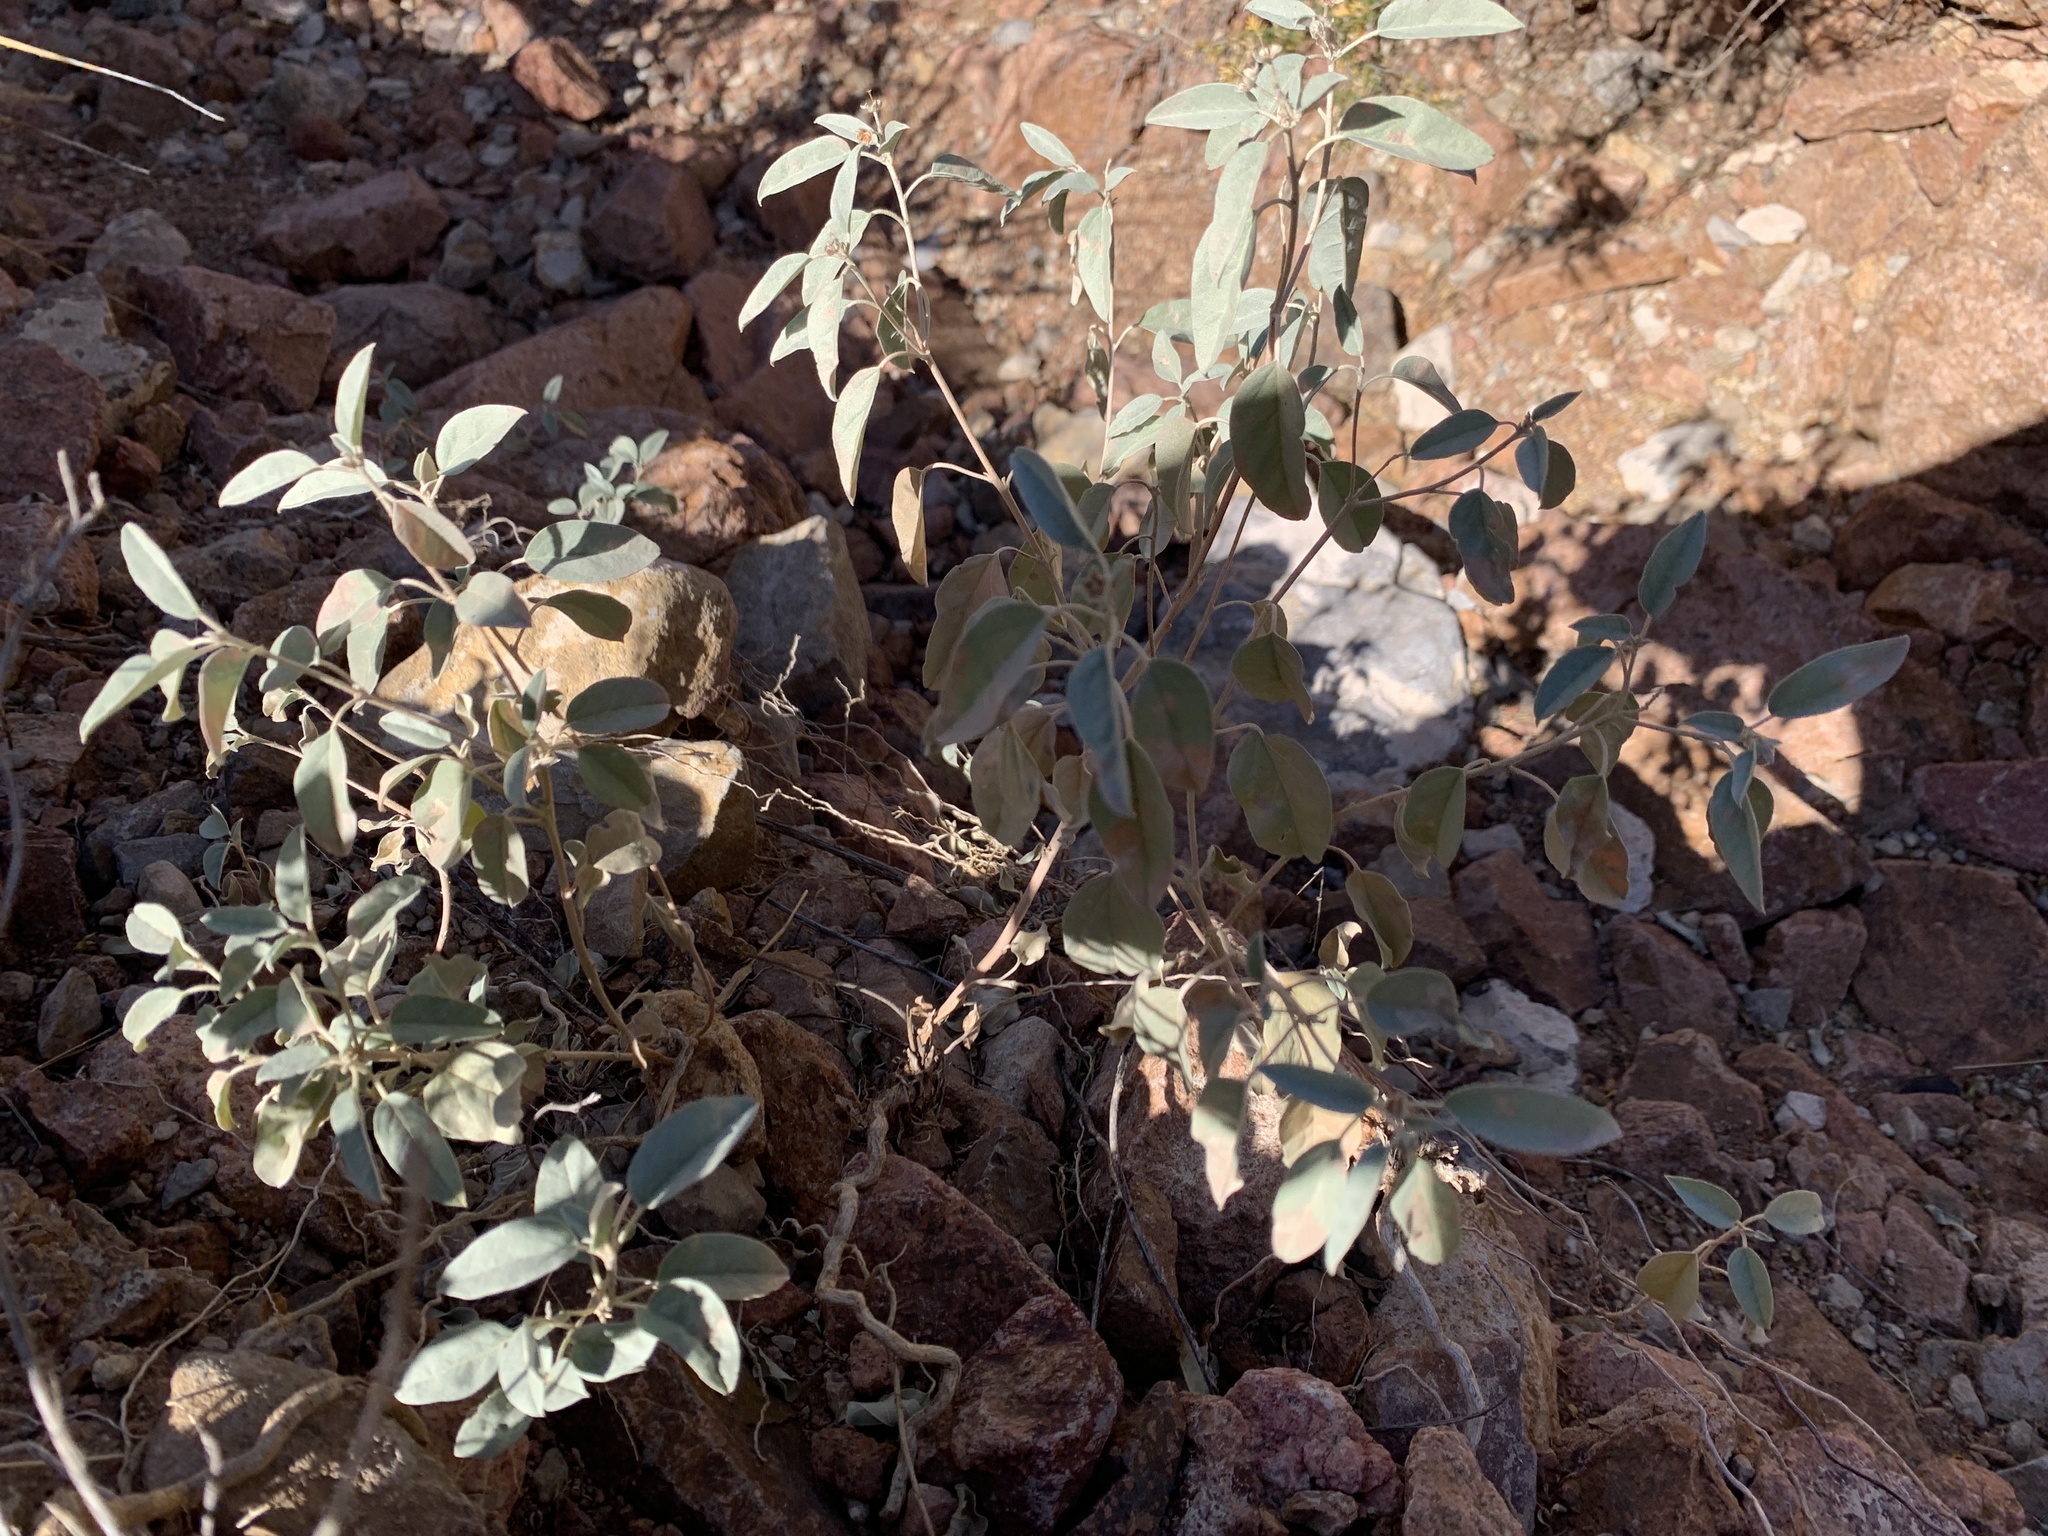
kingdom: Plantae
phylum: Tracheophyta
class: Magnoliopsida
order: Malpighiales
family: Euphorbiaceae
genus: Croton
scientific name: Croton pottsii
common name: Leatherweed
